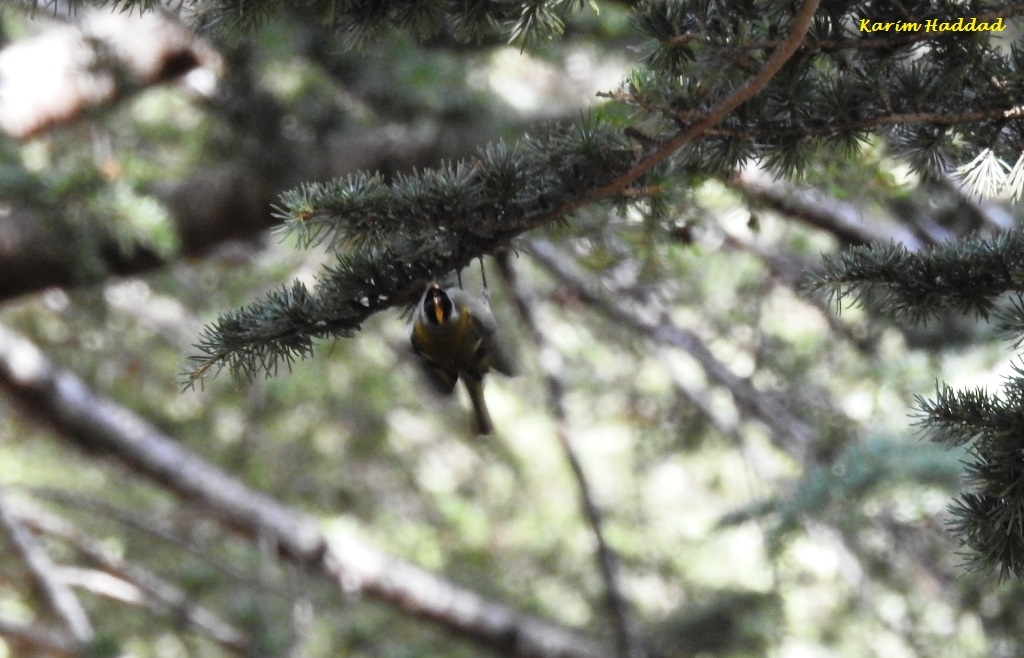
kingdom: Animalia
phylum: Chordata
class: Aves
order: Passeriformes
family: Regulidae
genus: Regulus
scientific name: Regulus ignicapilla
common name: Firecrest
